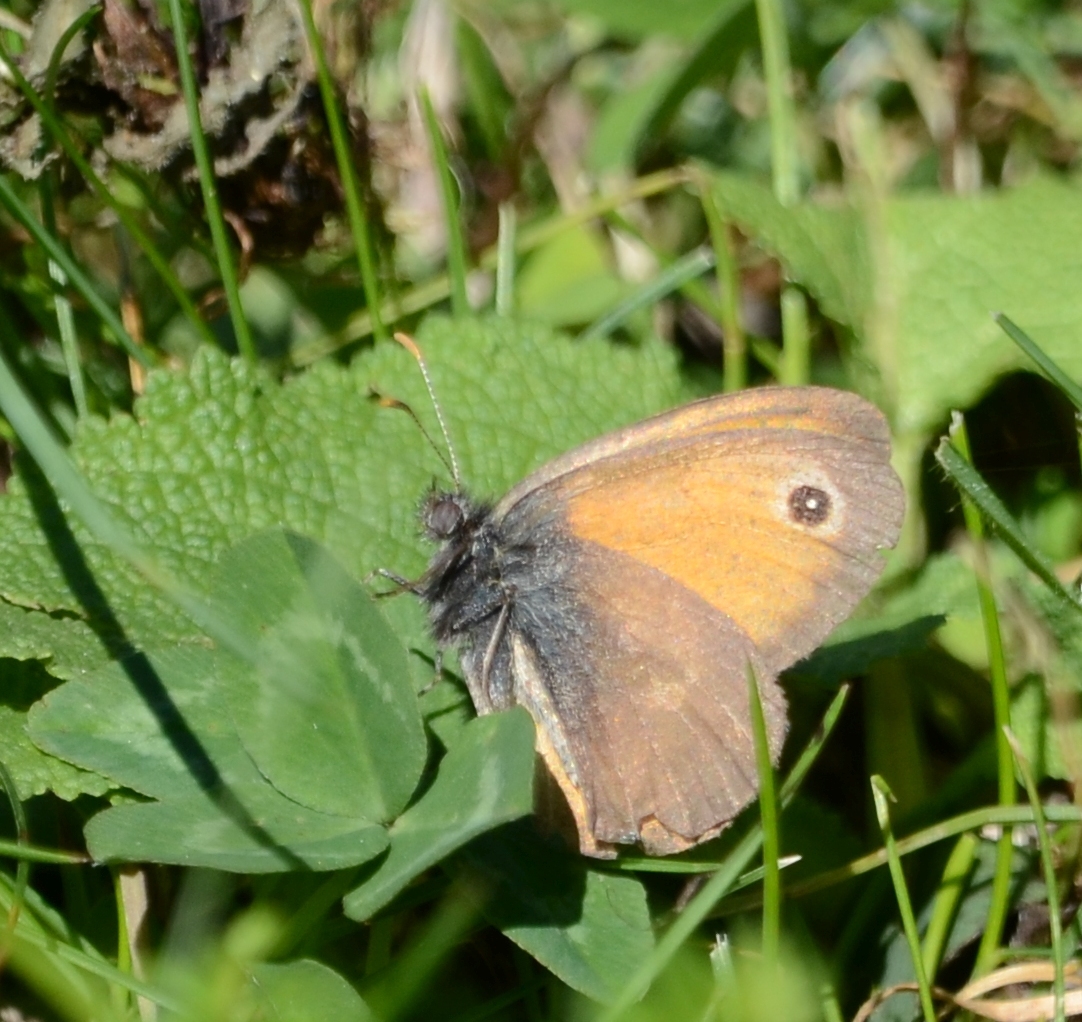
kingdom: Animalia
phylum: Arthropoda
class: Insecta
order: Lepidoptera
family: Nymphalidae
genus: Coenonympha
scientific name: Coenonympha pamphilus
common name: Small heath
